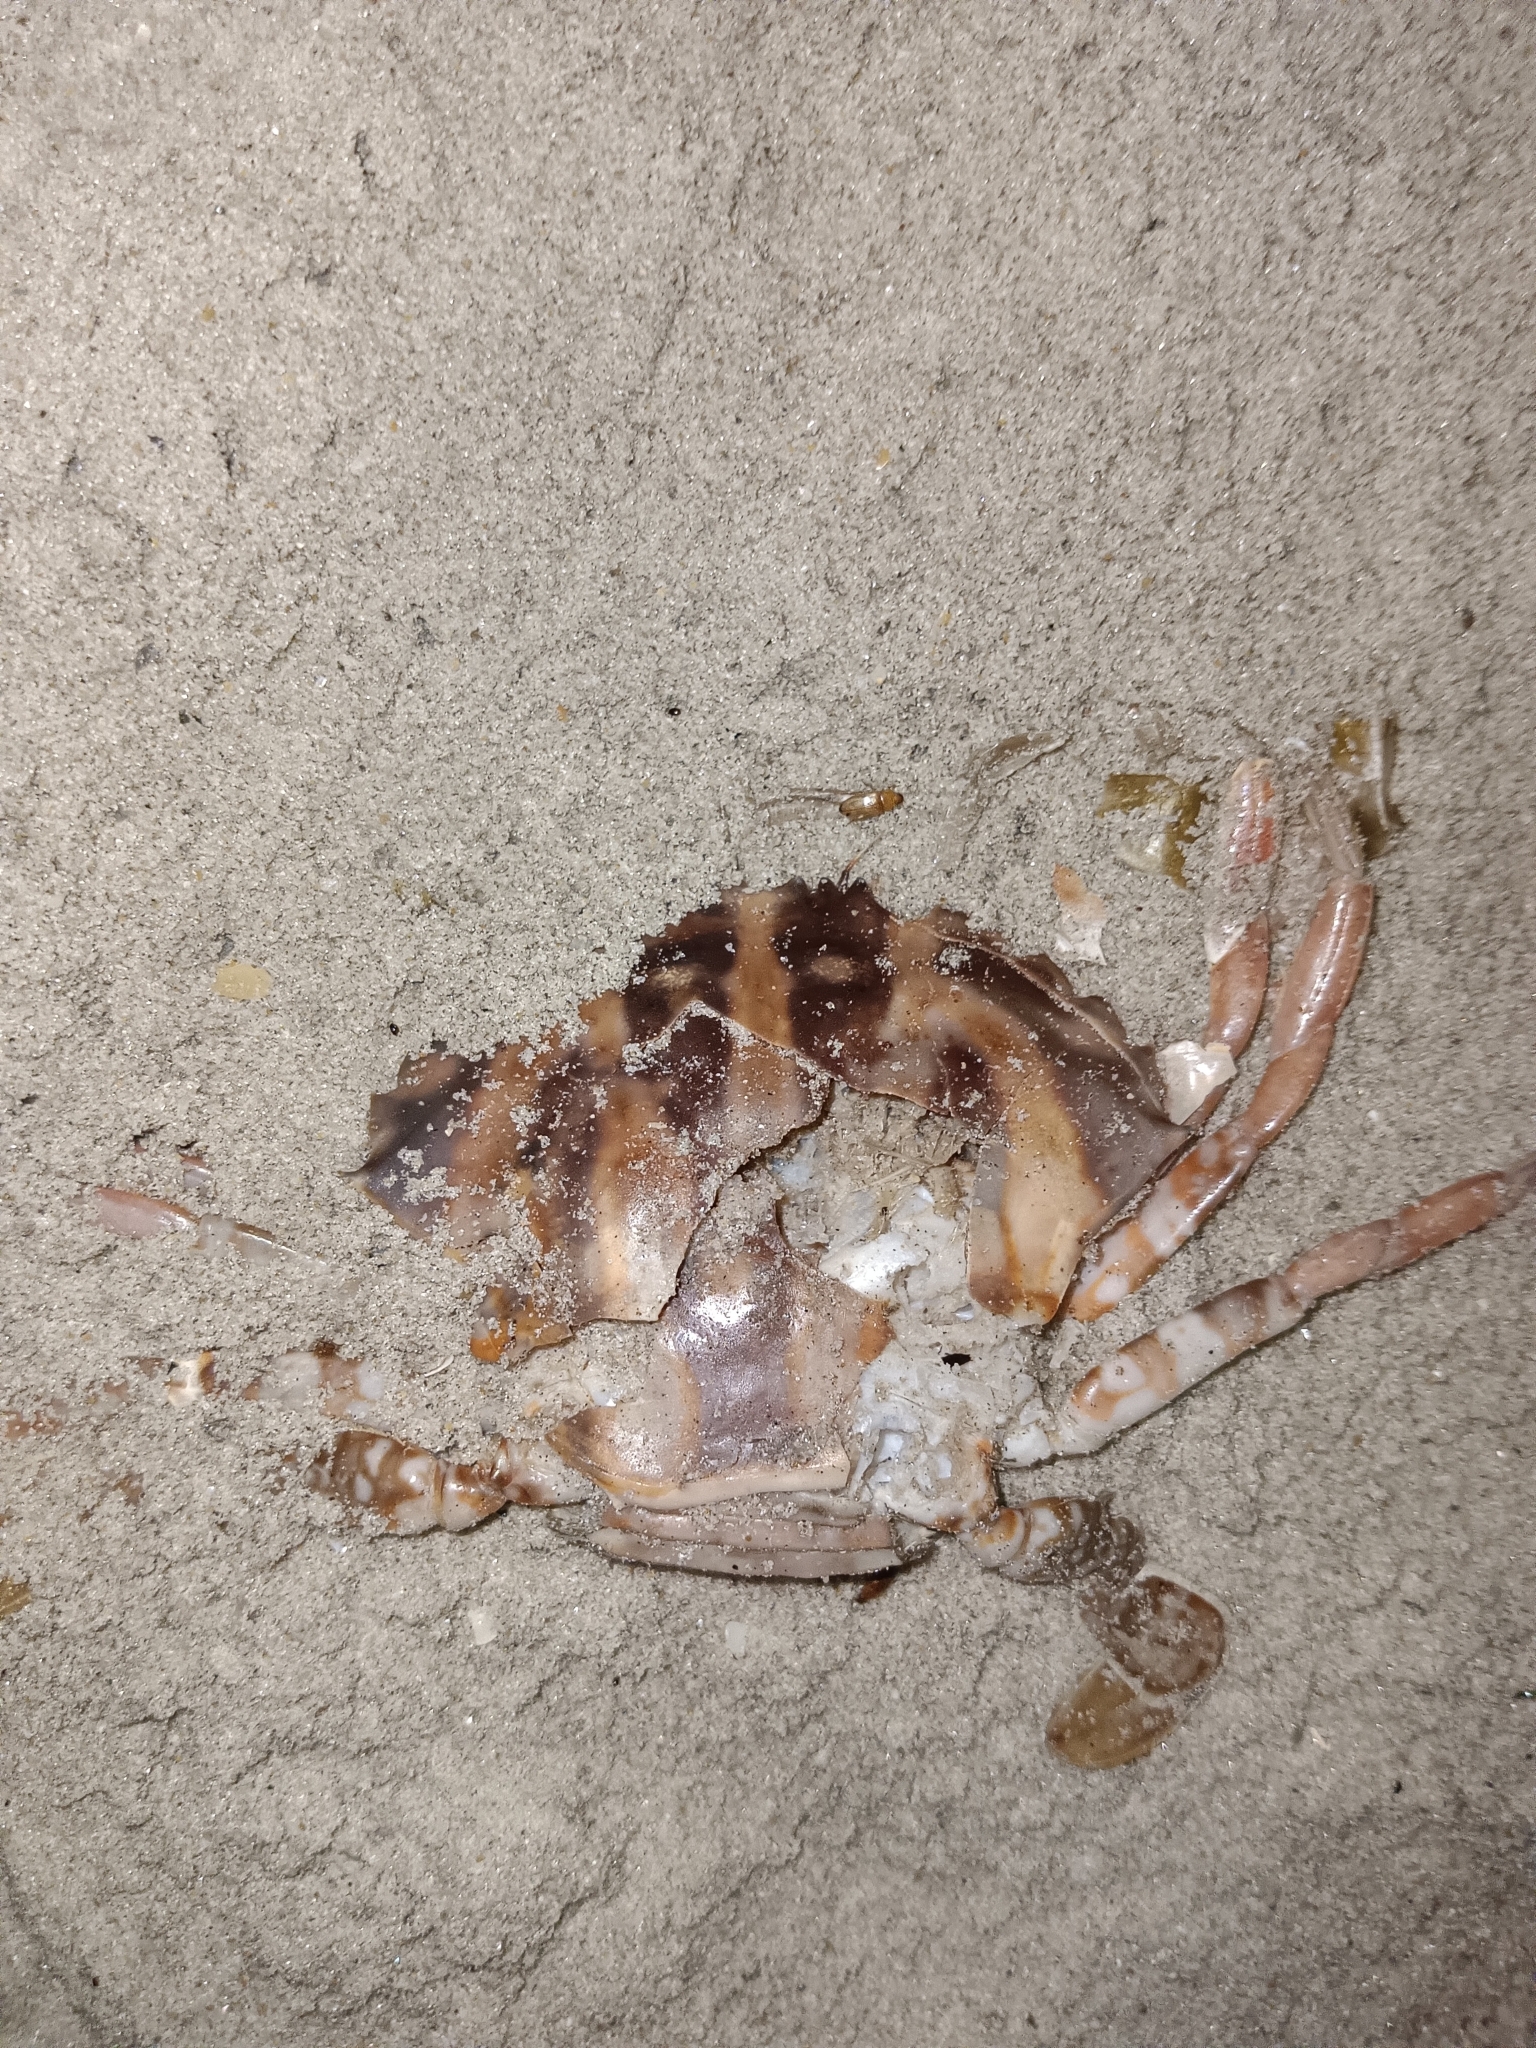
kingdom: Animalia
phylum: Arthropoda
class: Malacostraca
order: Decapoda
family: Portunidae
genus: Charybdis
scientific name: Charybdis feriata
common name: Striped swimming crab
